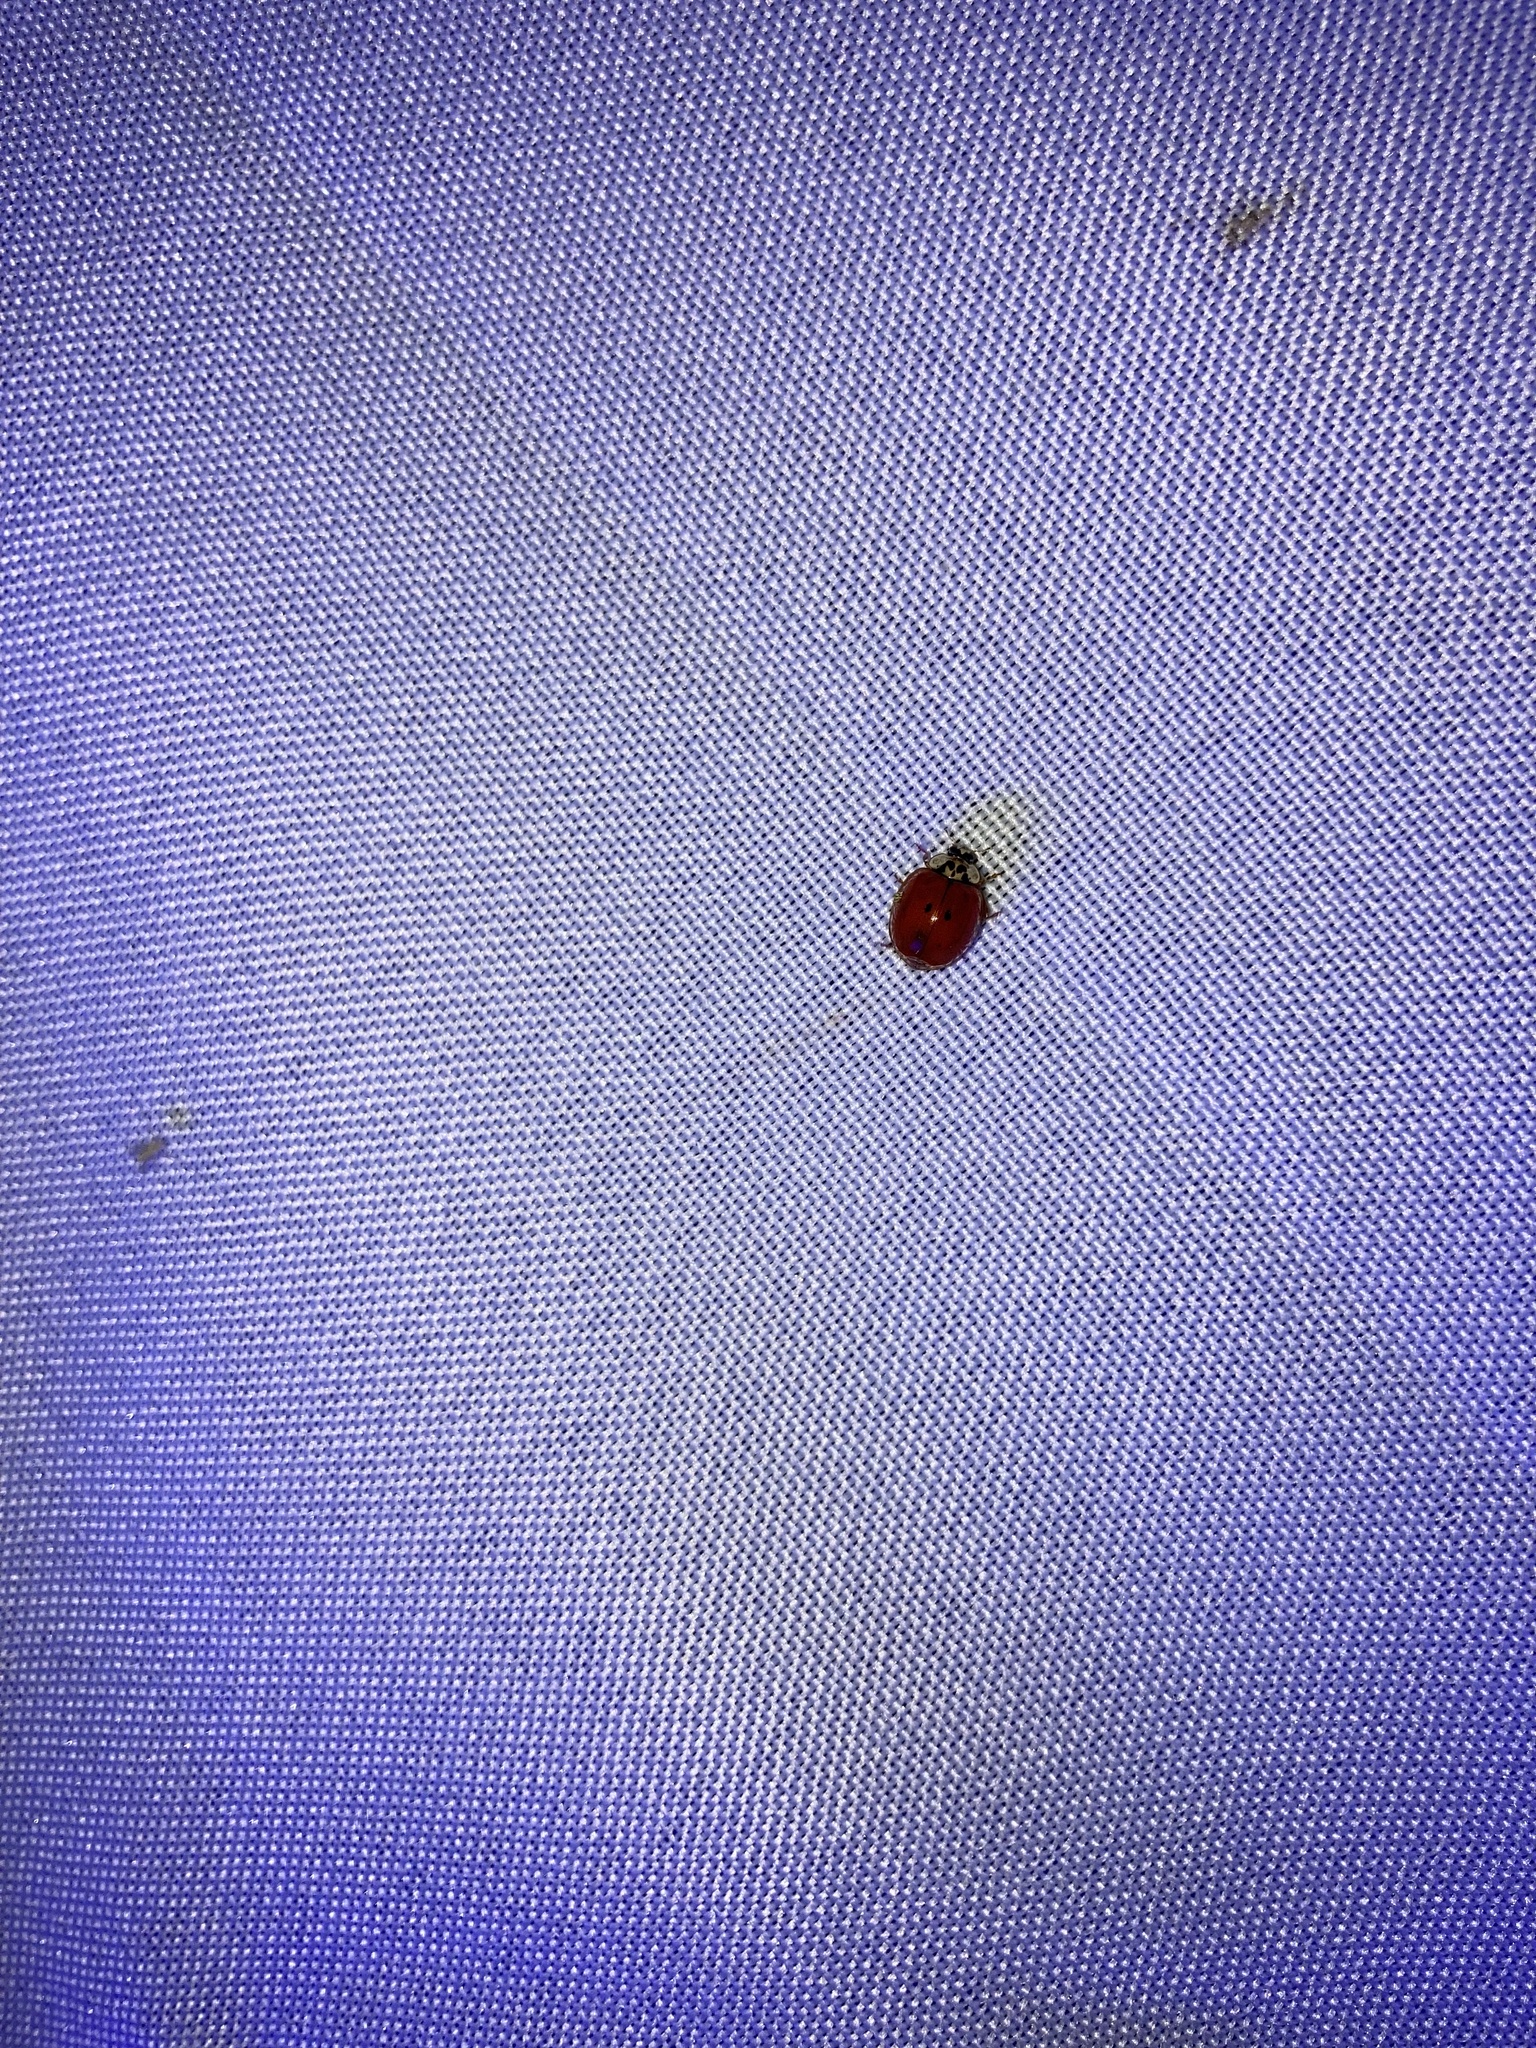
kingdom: Animalia
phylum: Arthropoda
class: Insecta
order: Coleoptera
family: Coccinellidae
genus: Harmonia
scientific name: Harmonia axyridis
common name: Harlequin ladybird
